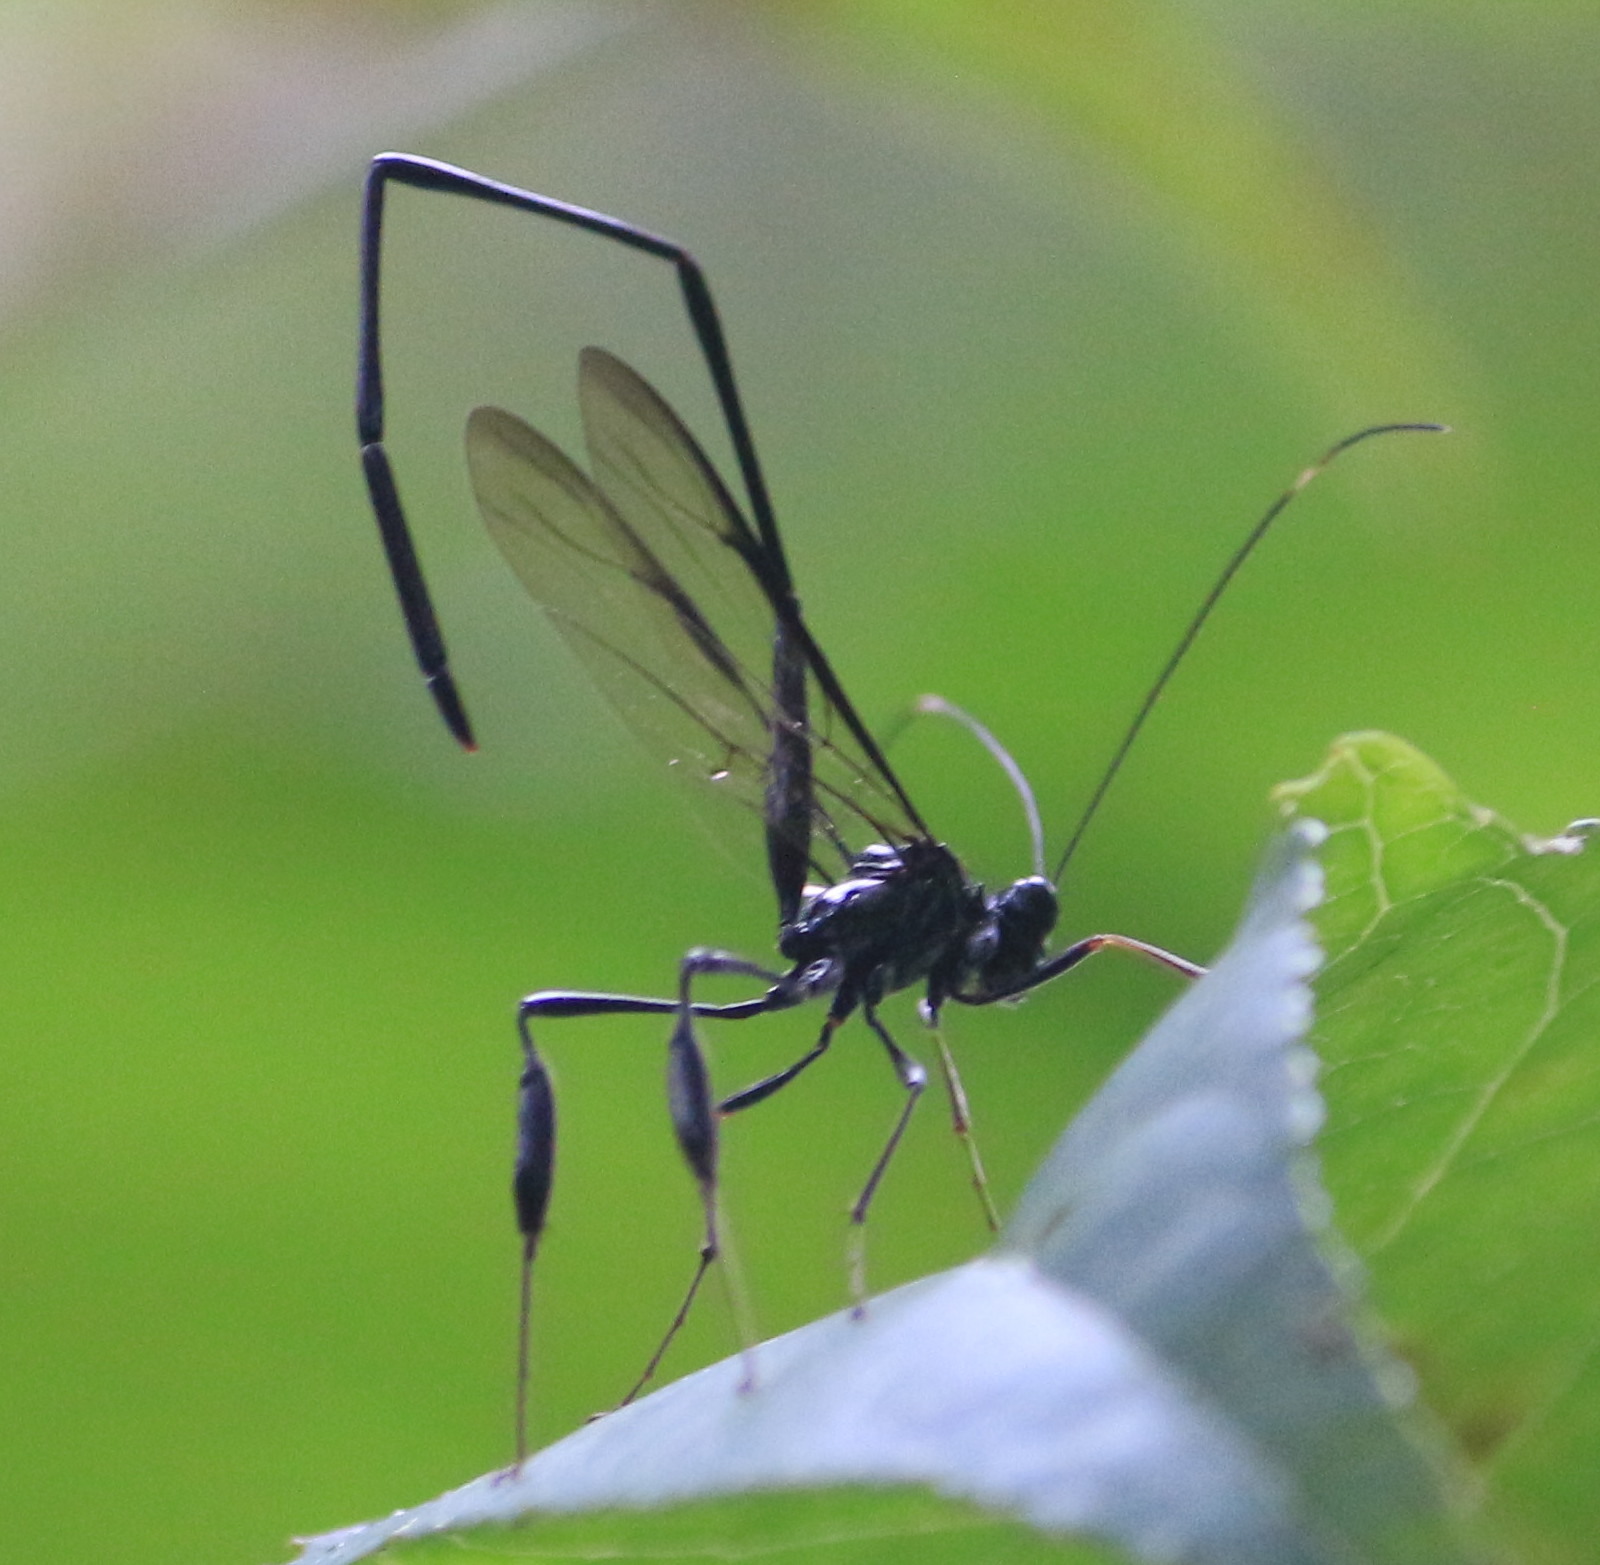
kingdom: Animalia
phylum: Arthropoda
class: Insecta
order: Hymenoptera
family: Pelecinidae
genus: Pelecinus
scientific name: Pelecinus polyturator
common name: American pelecinid wasp
